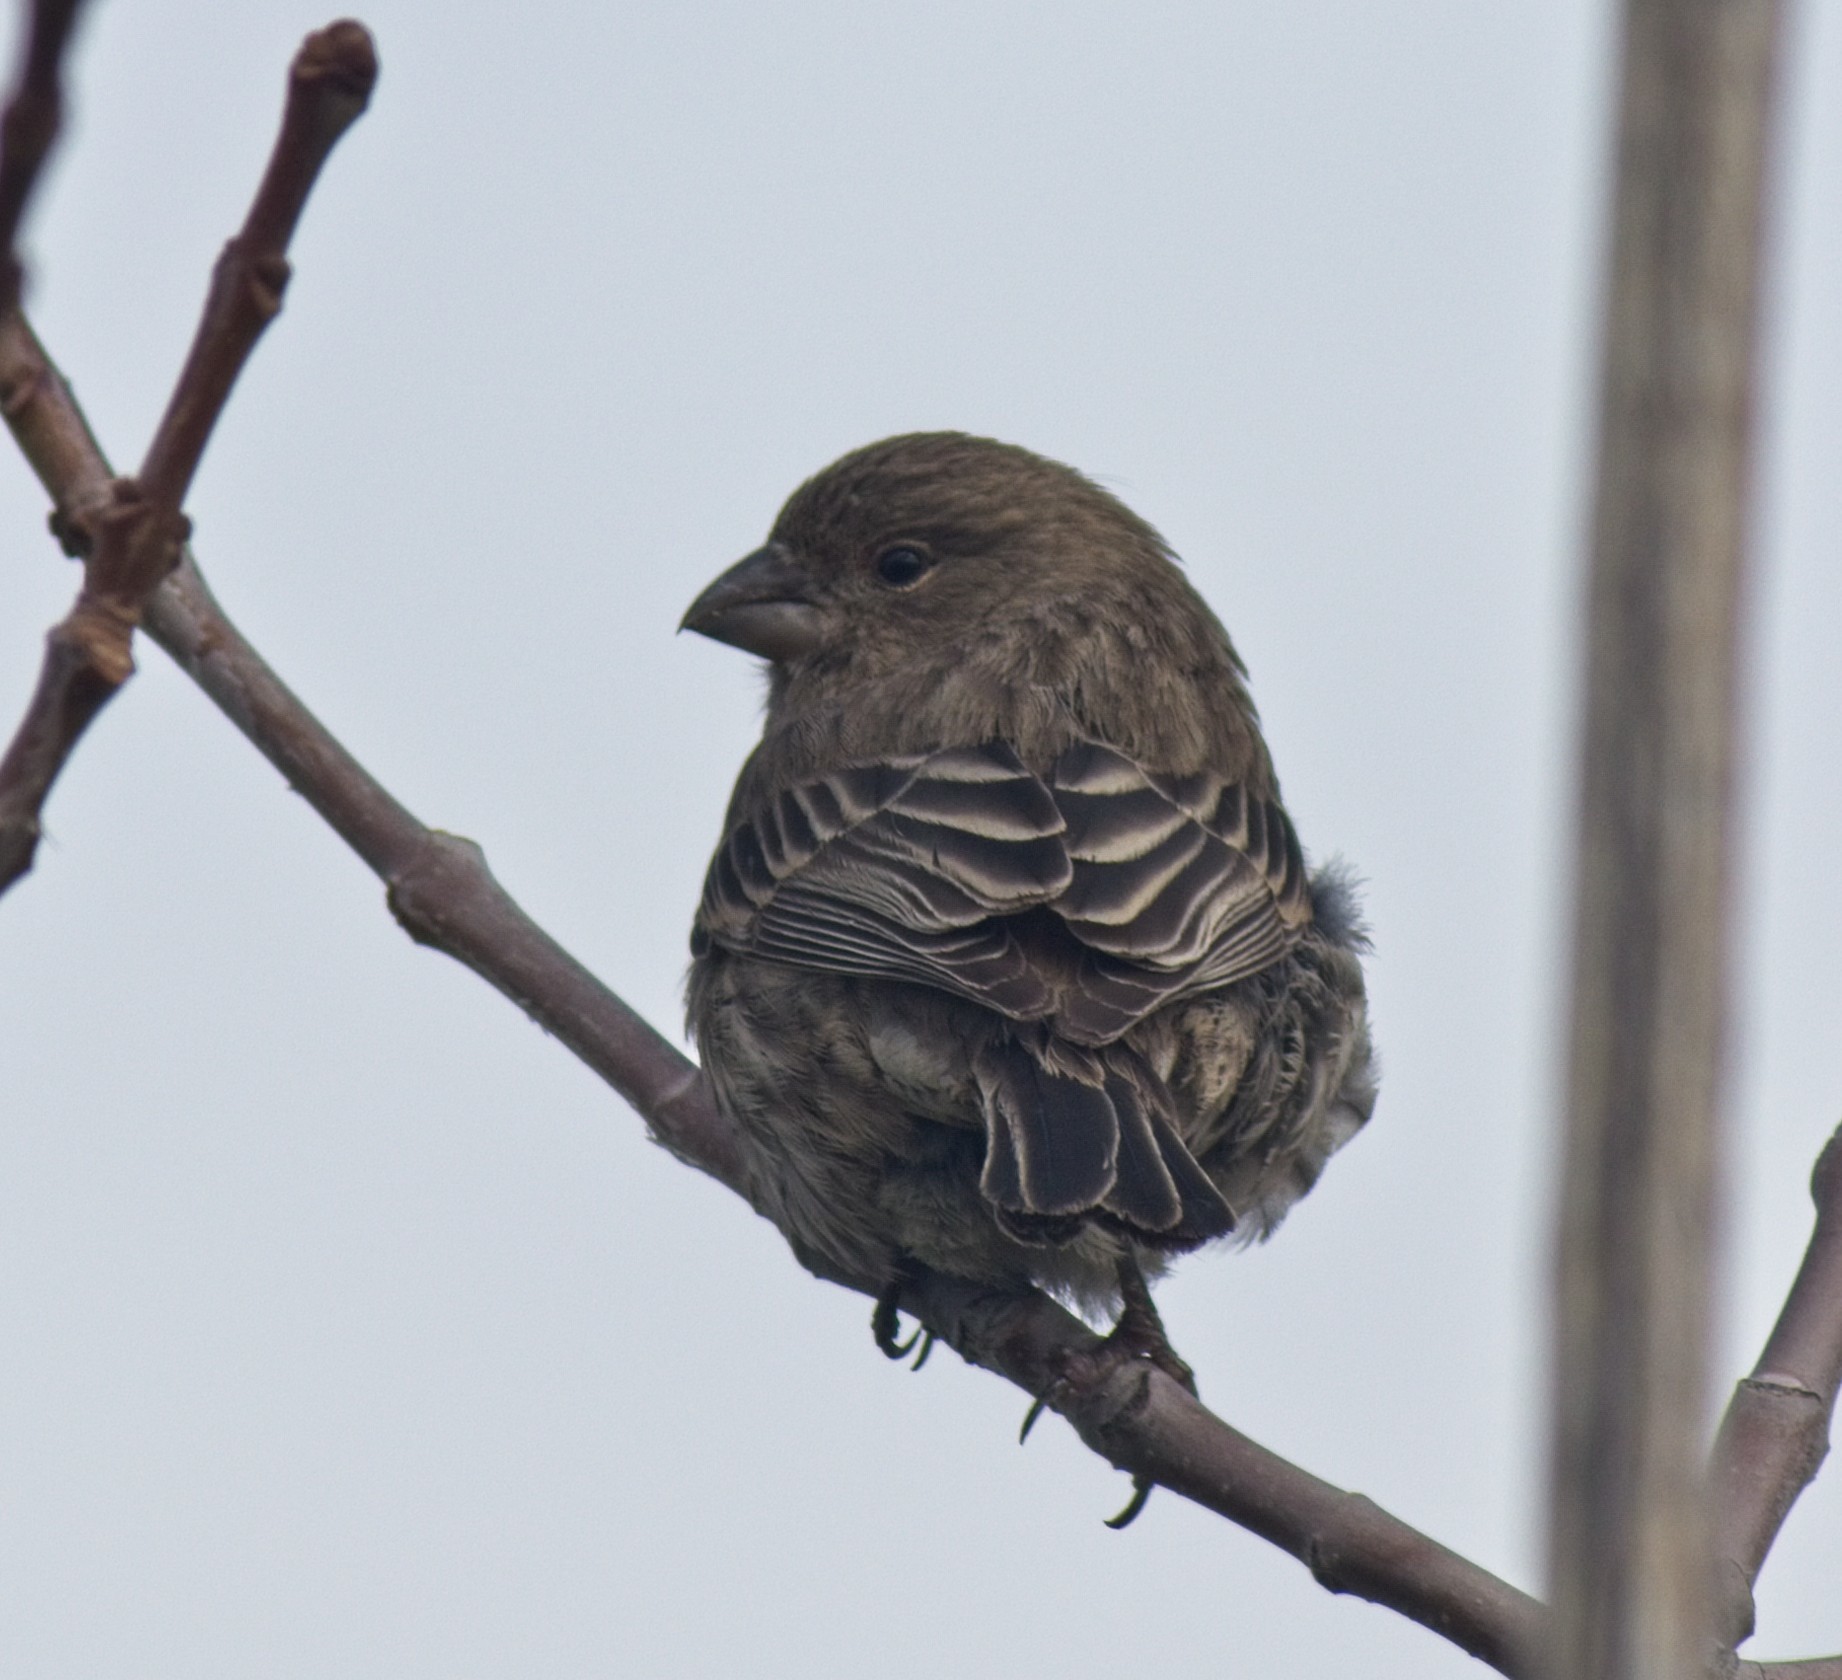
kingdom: Animalia
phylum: Chordata
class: Aves
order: Passeriformes
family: Fringillidae
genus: Haemorhous
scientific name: Haemorhous mexicanus
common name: House finch
